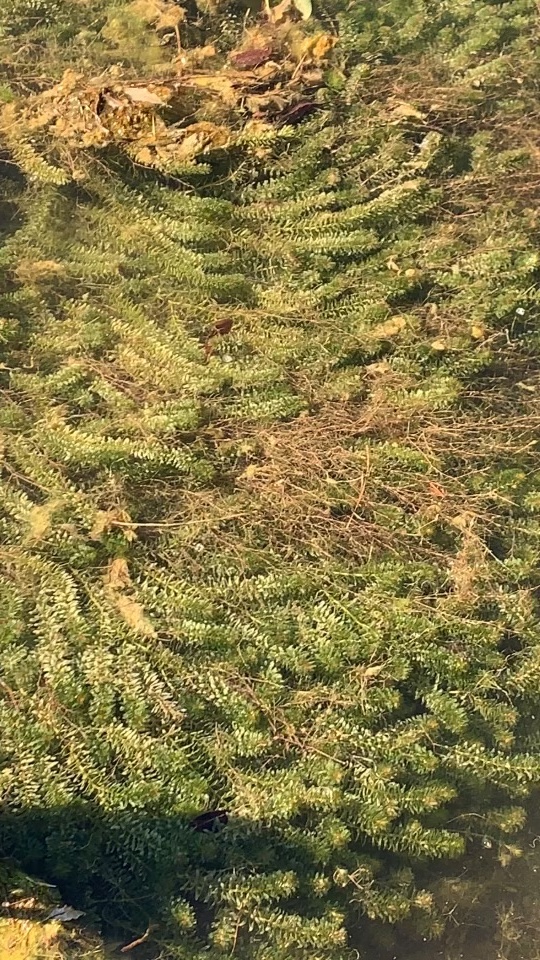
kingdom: Plantae
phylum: Tracheophyta
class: Liliopsida
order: Alismatales
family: Hydrocharitaceae
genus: Elodea
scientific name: Elodea canadensis
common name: Canadian waterweed
